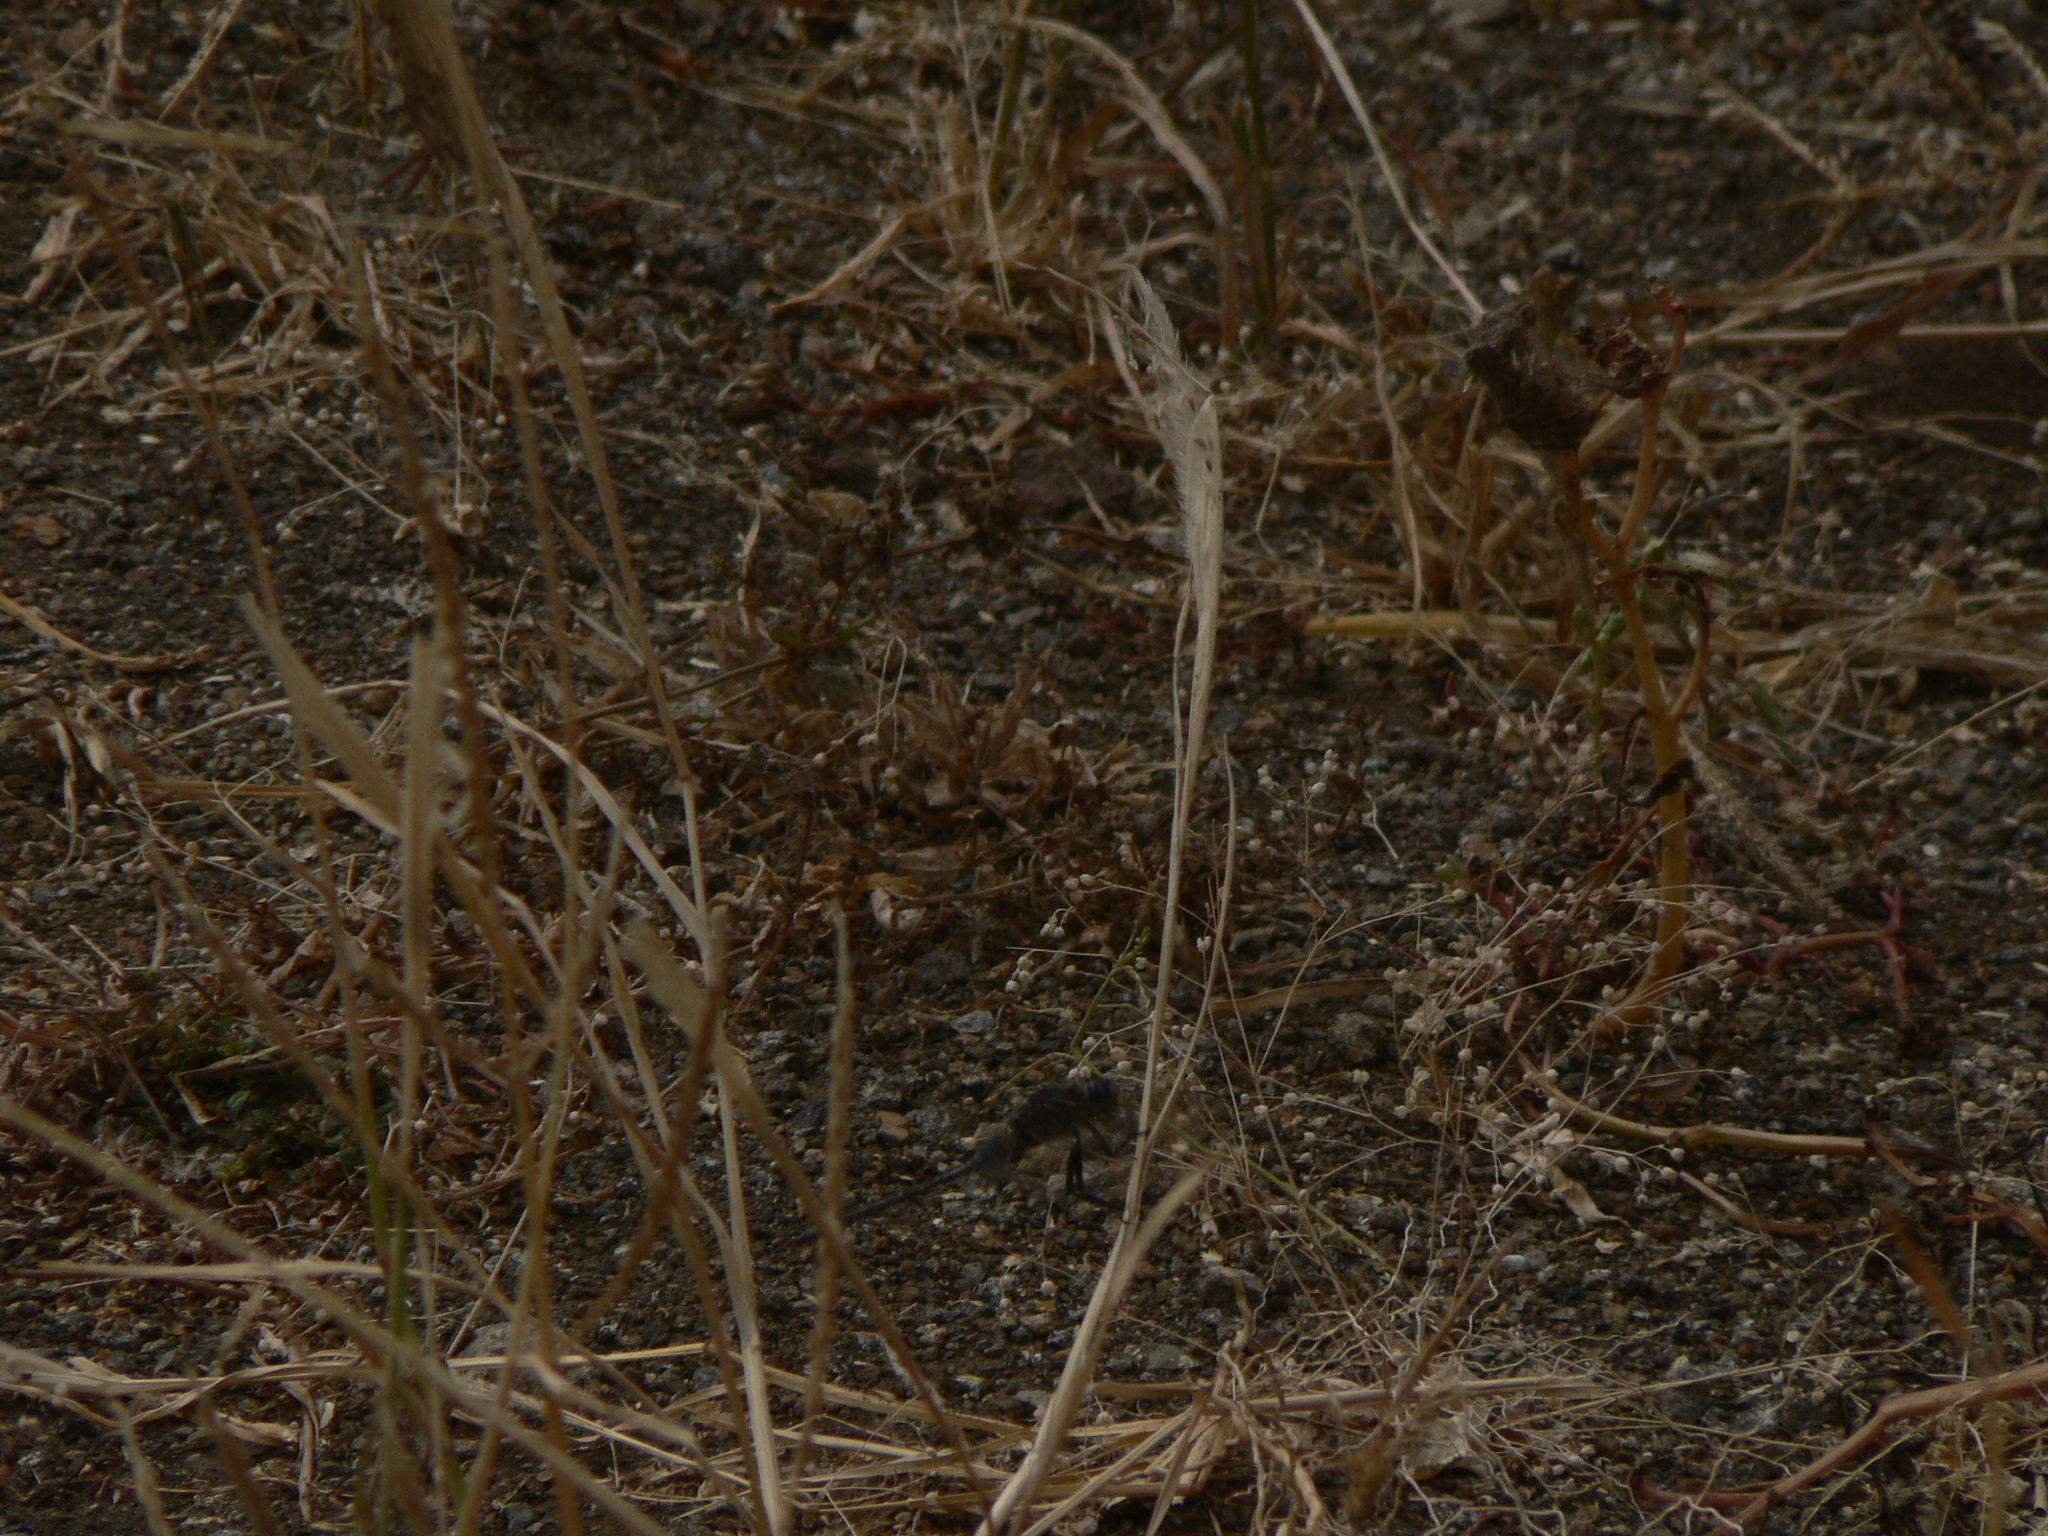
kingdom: Animalia
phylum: Arthropoda
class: Insecta
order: Odonata
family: Libellulidae
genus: Orthetrum
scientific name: Orthetrum trinacria
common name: Long skimmer
